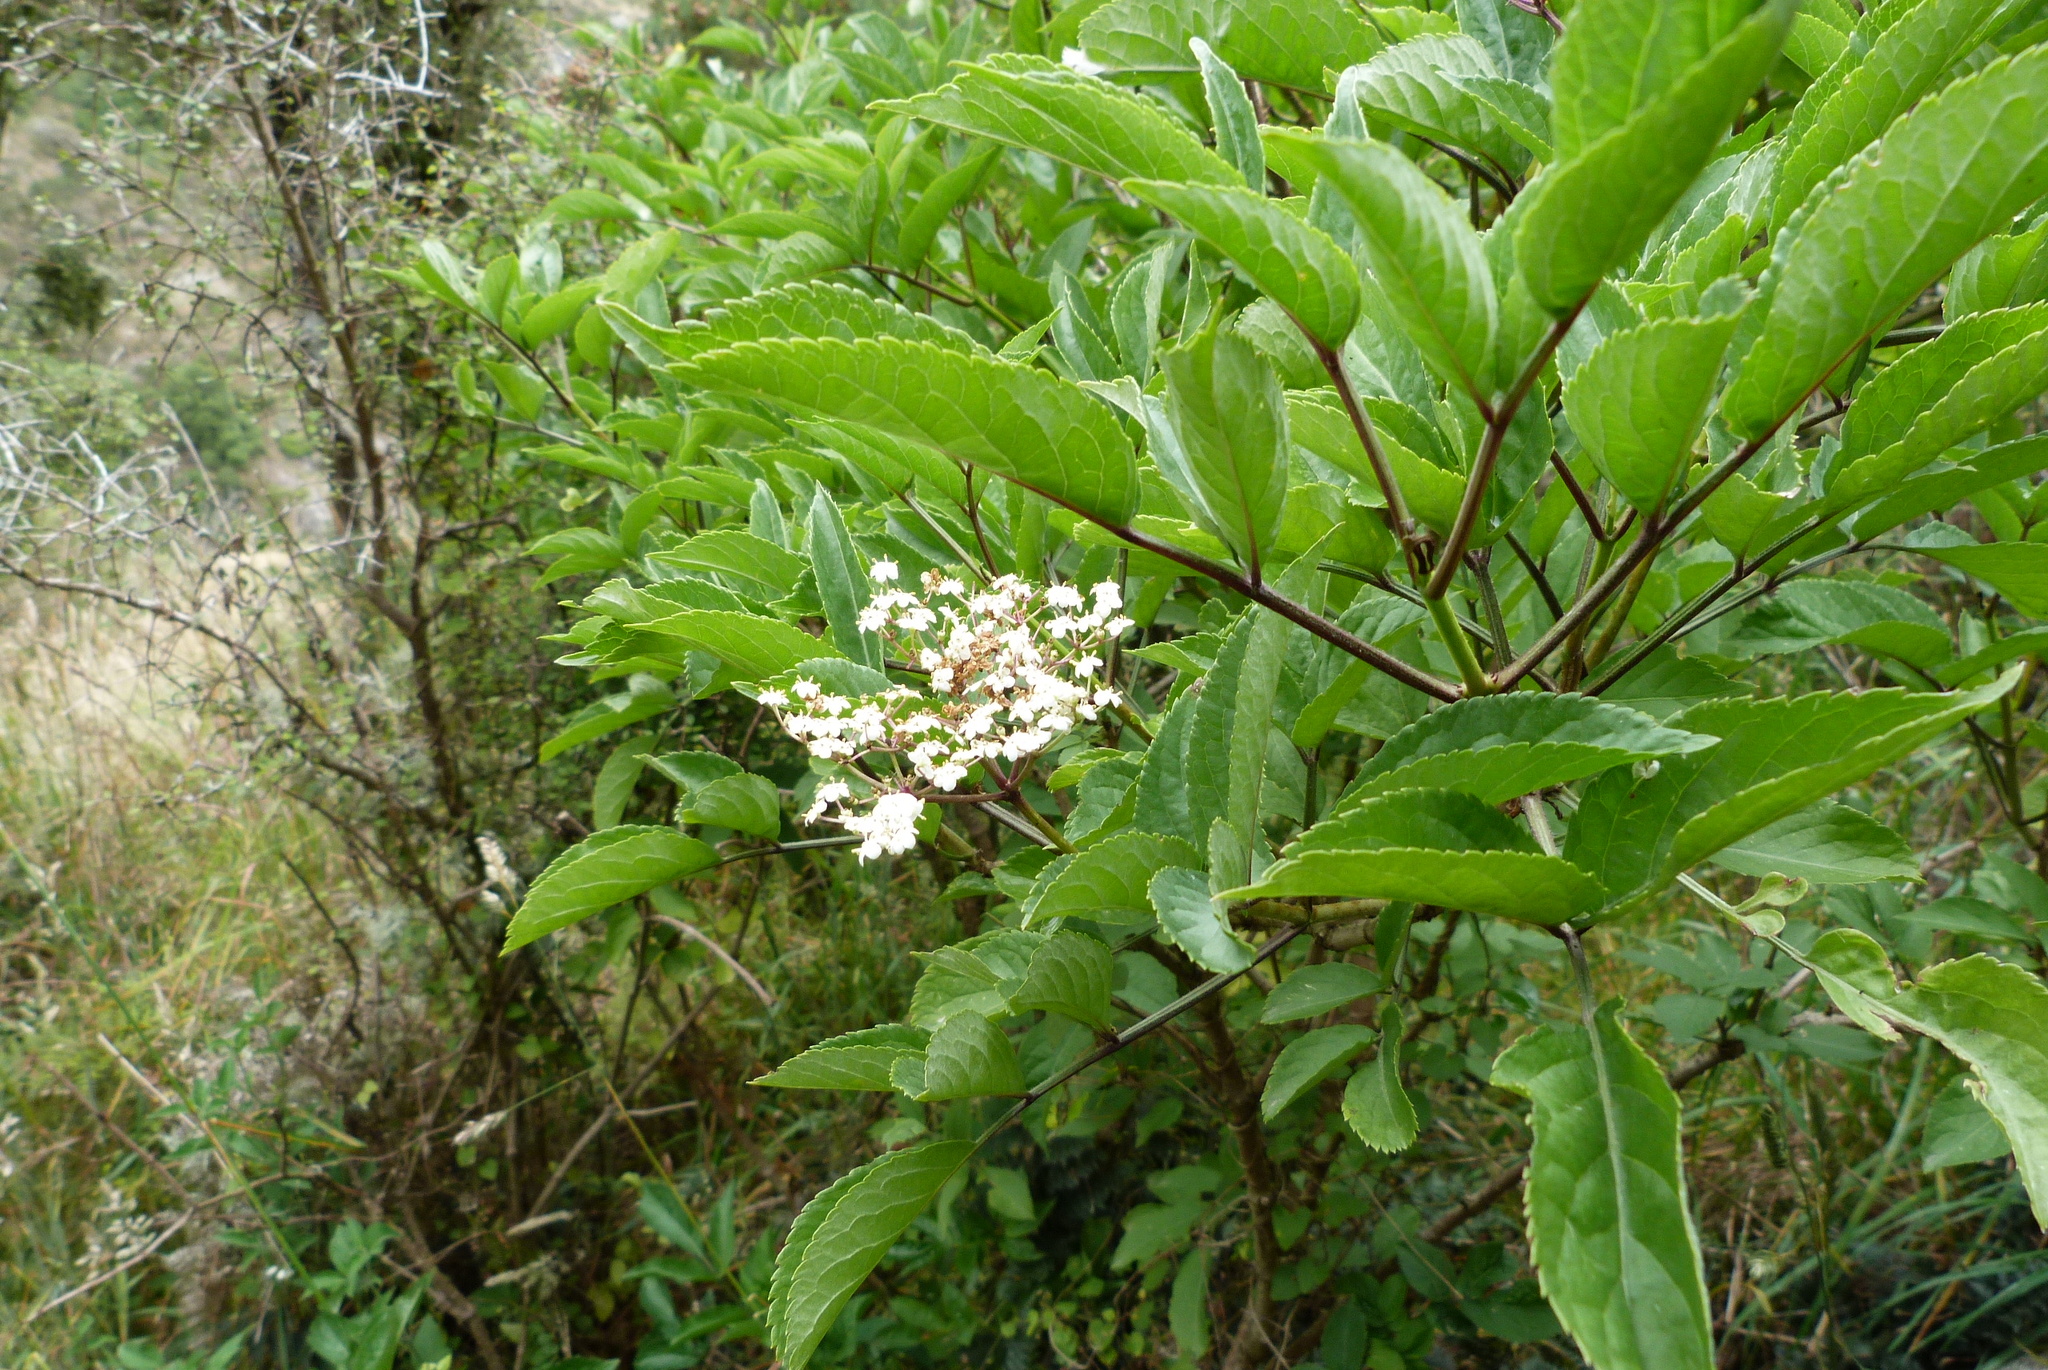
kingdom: Plantae
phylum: Tracheophyta
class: Magnoliopsida
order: Dipsacales
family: Viburnaceae
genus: Sambucus
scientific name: Sambucus nigra
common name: Elder
